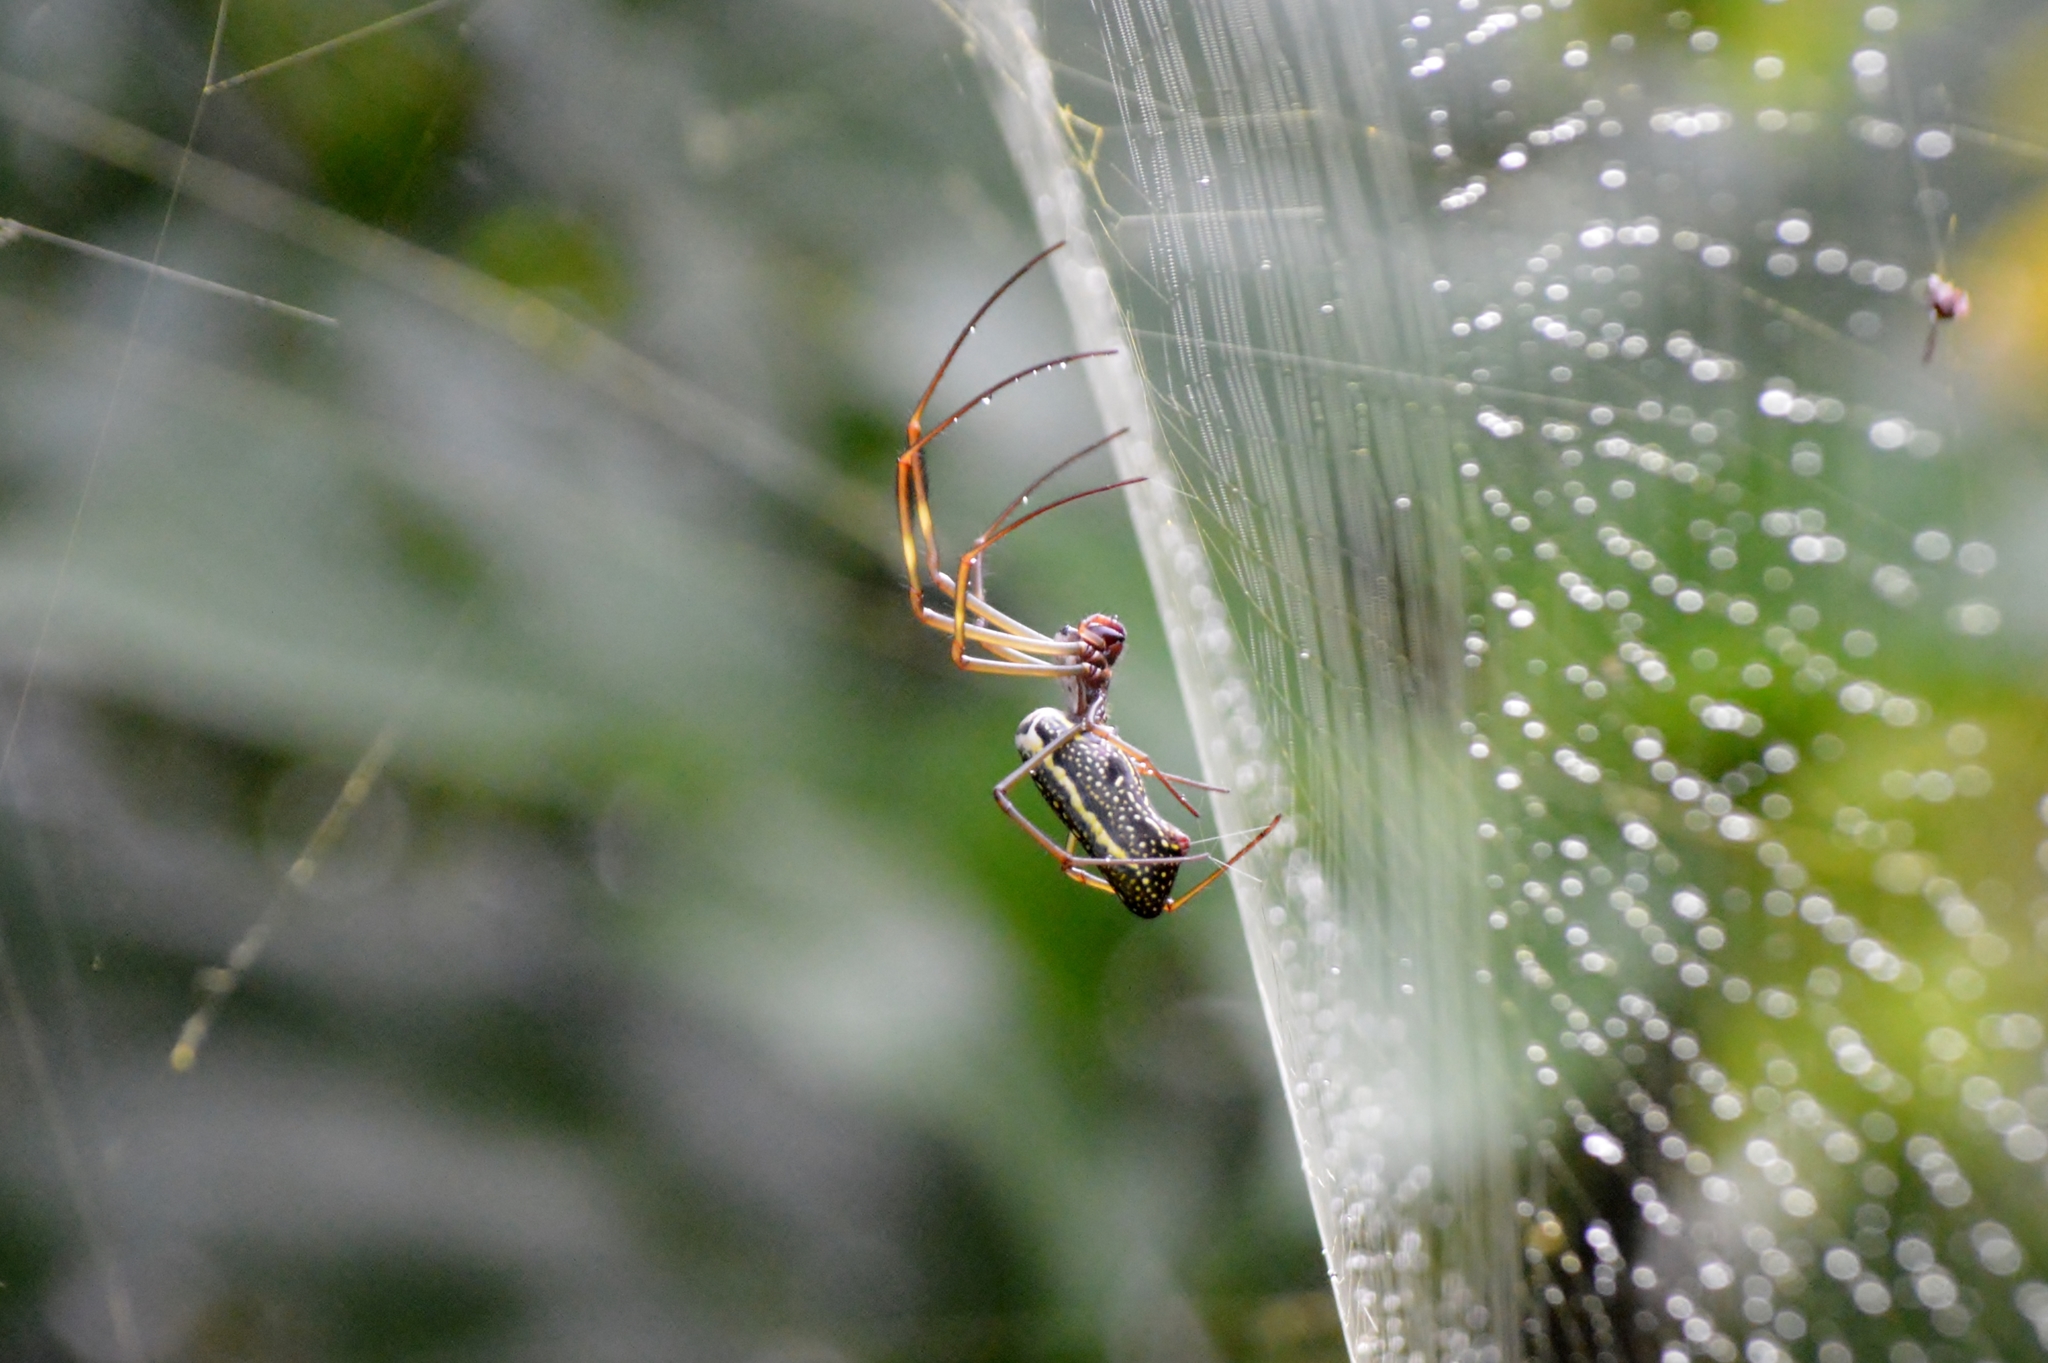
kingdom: Animalia
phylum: Arthropoda
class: Arachnida
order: Araneae
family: Araneidae
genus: Trichonephila
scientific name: Trichonephila clavipes
